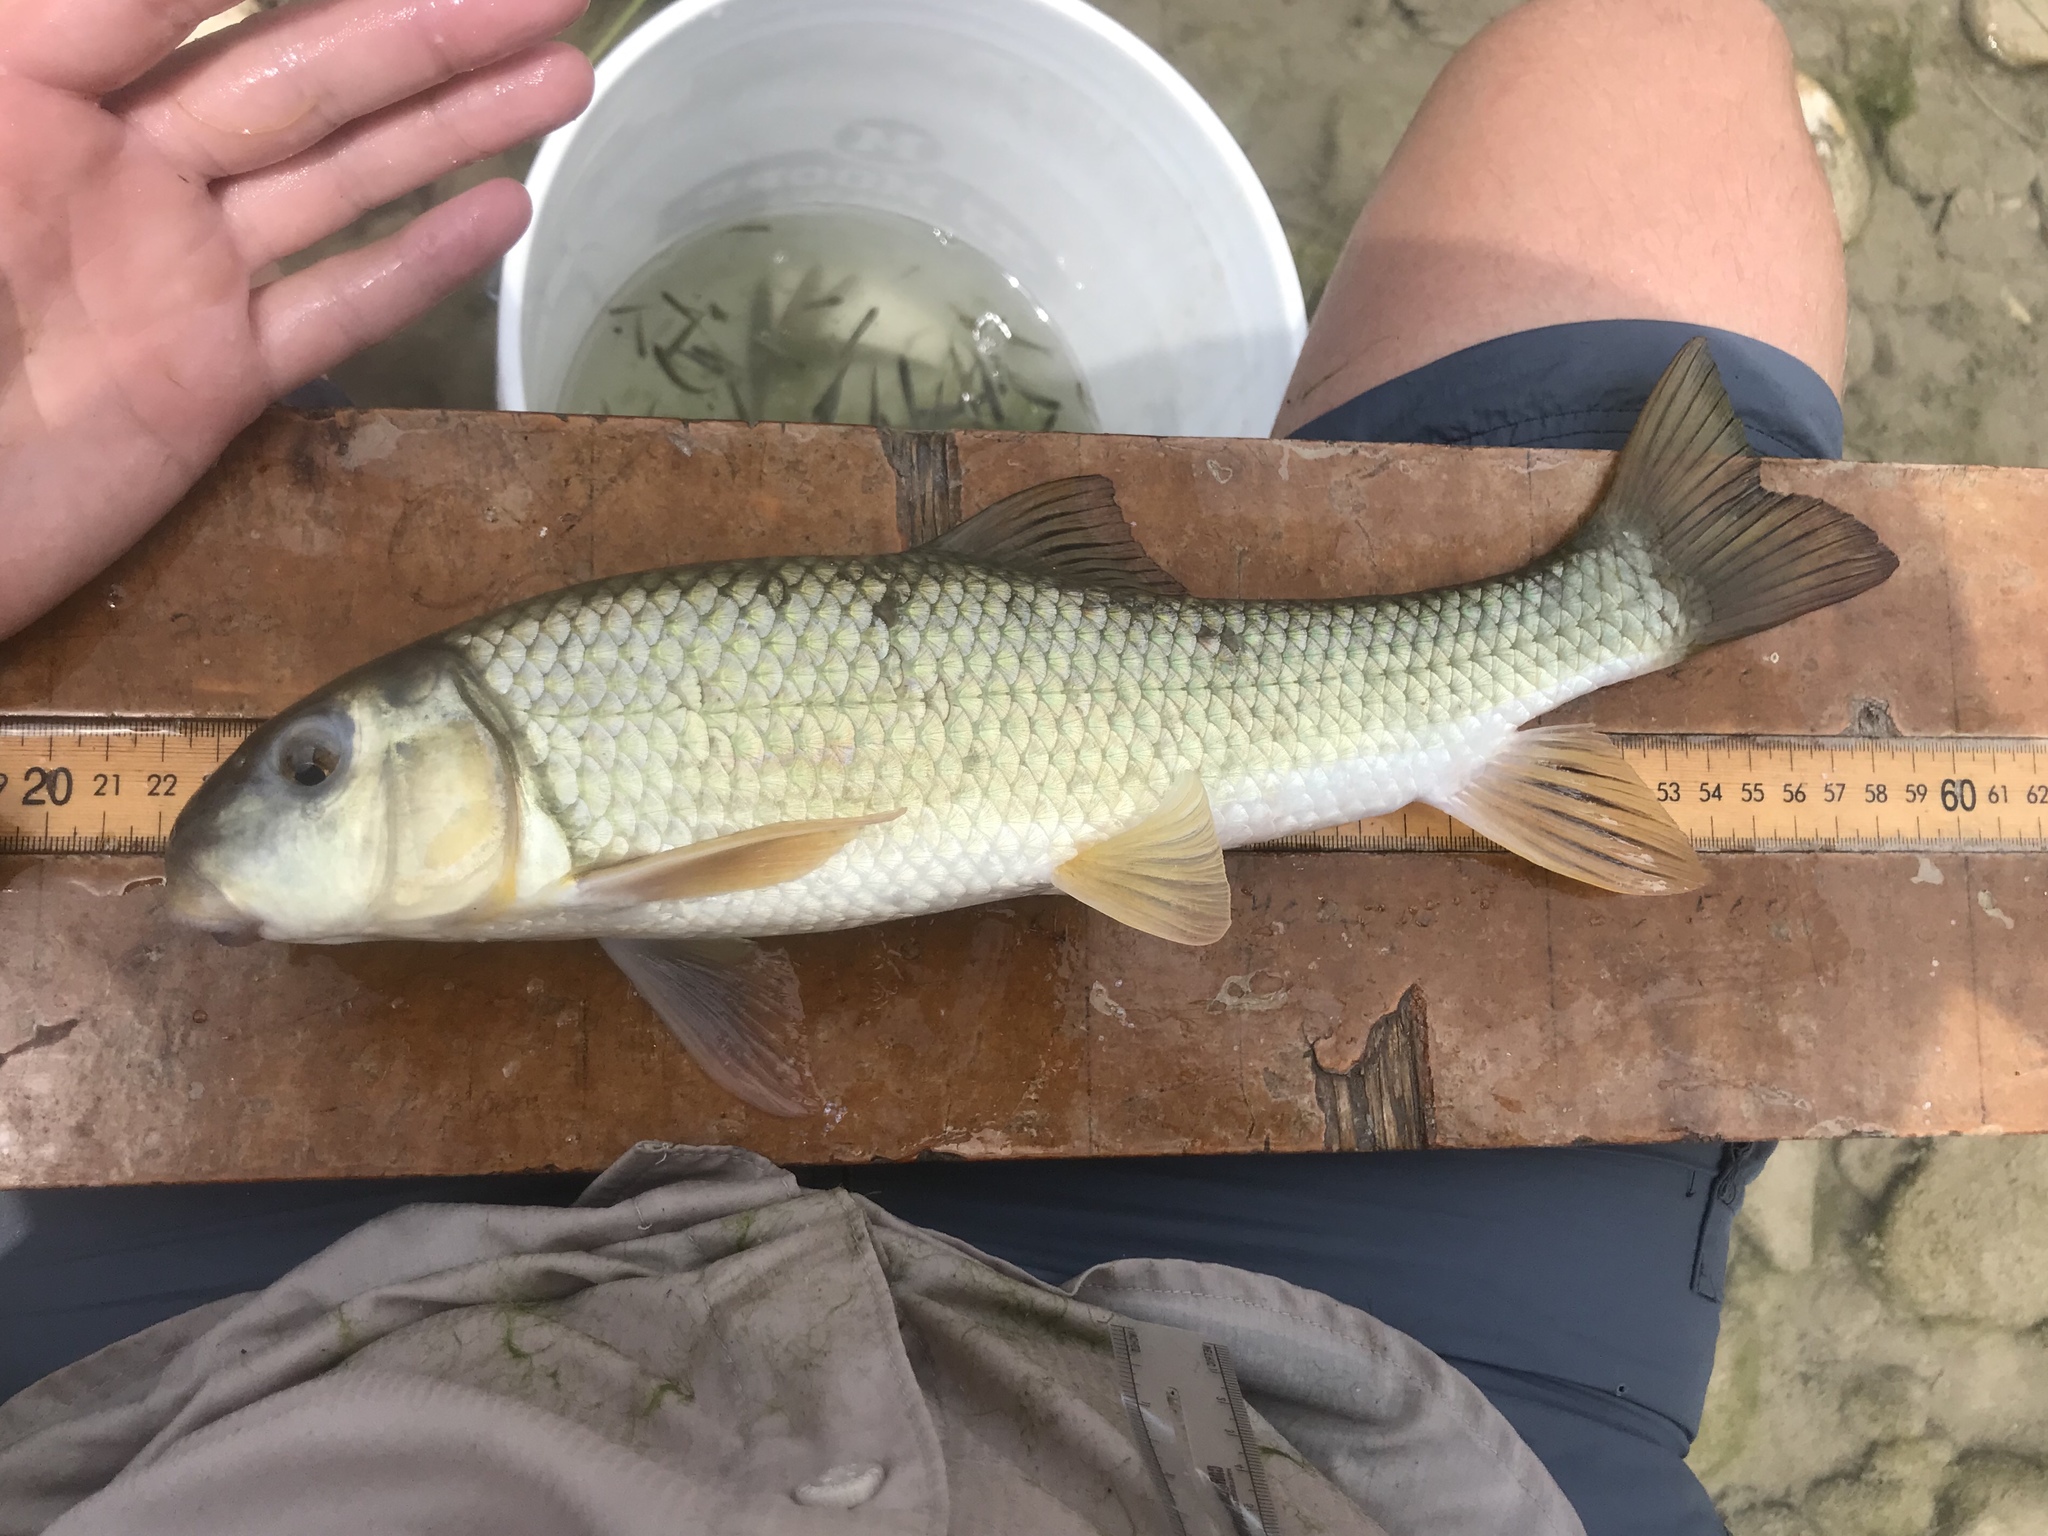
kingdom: Animalia
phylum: Chordata
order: Cypriniformes
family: Catostomidae
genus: Moxostoma
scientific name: Moxostoma congestum
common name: Gray redhorse
